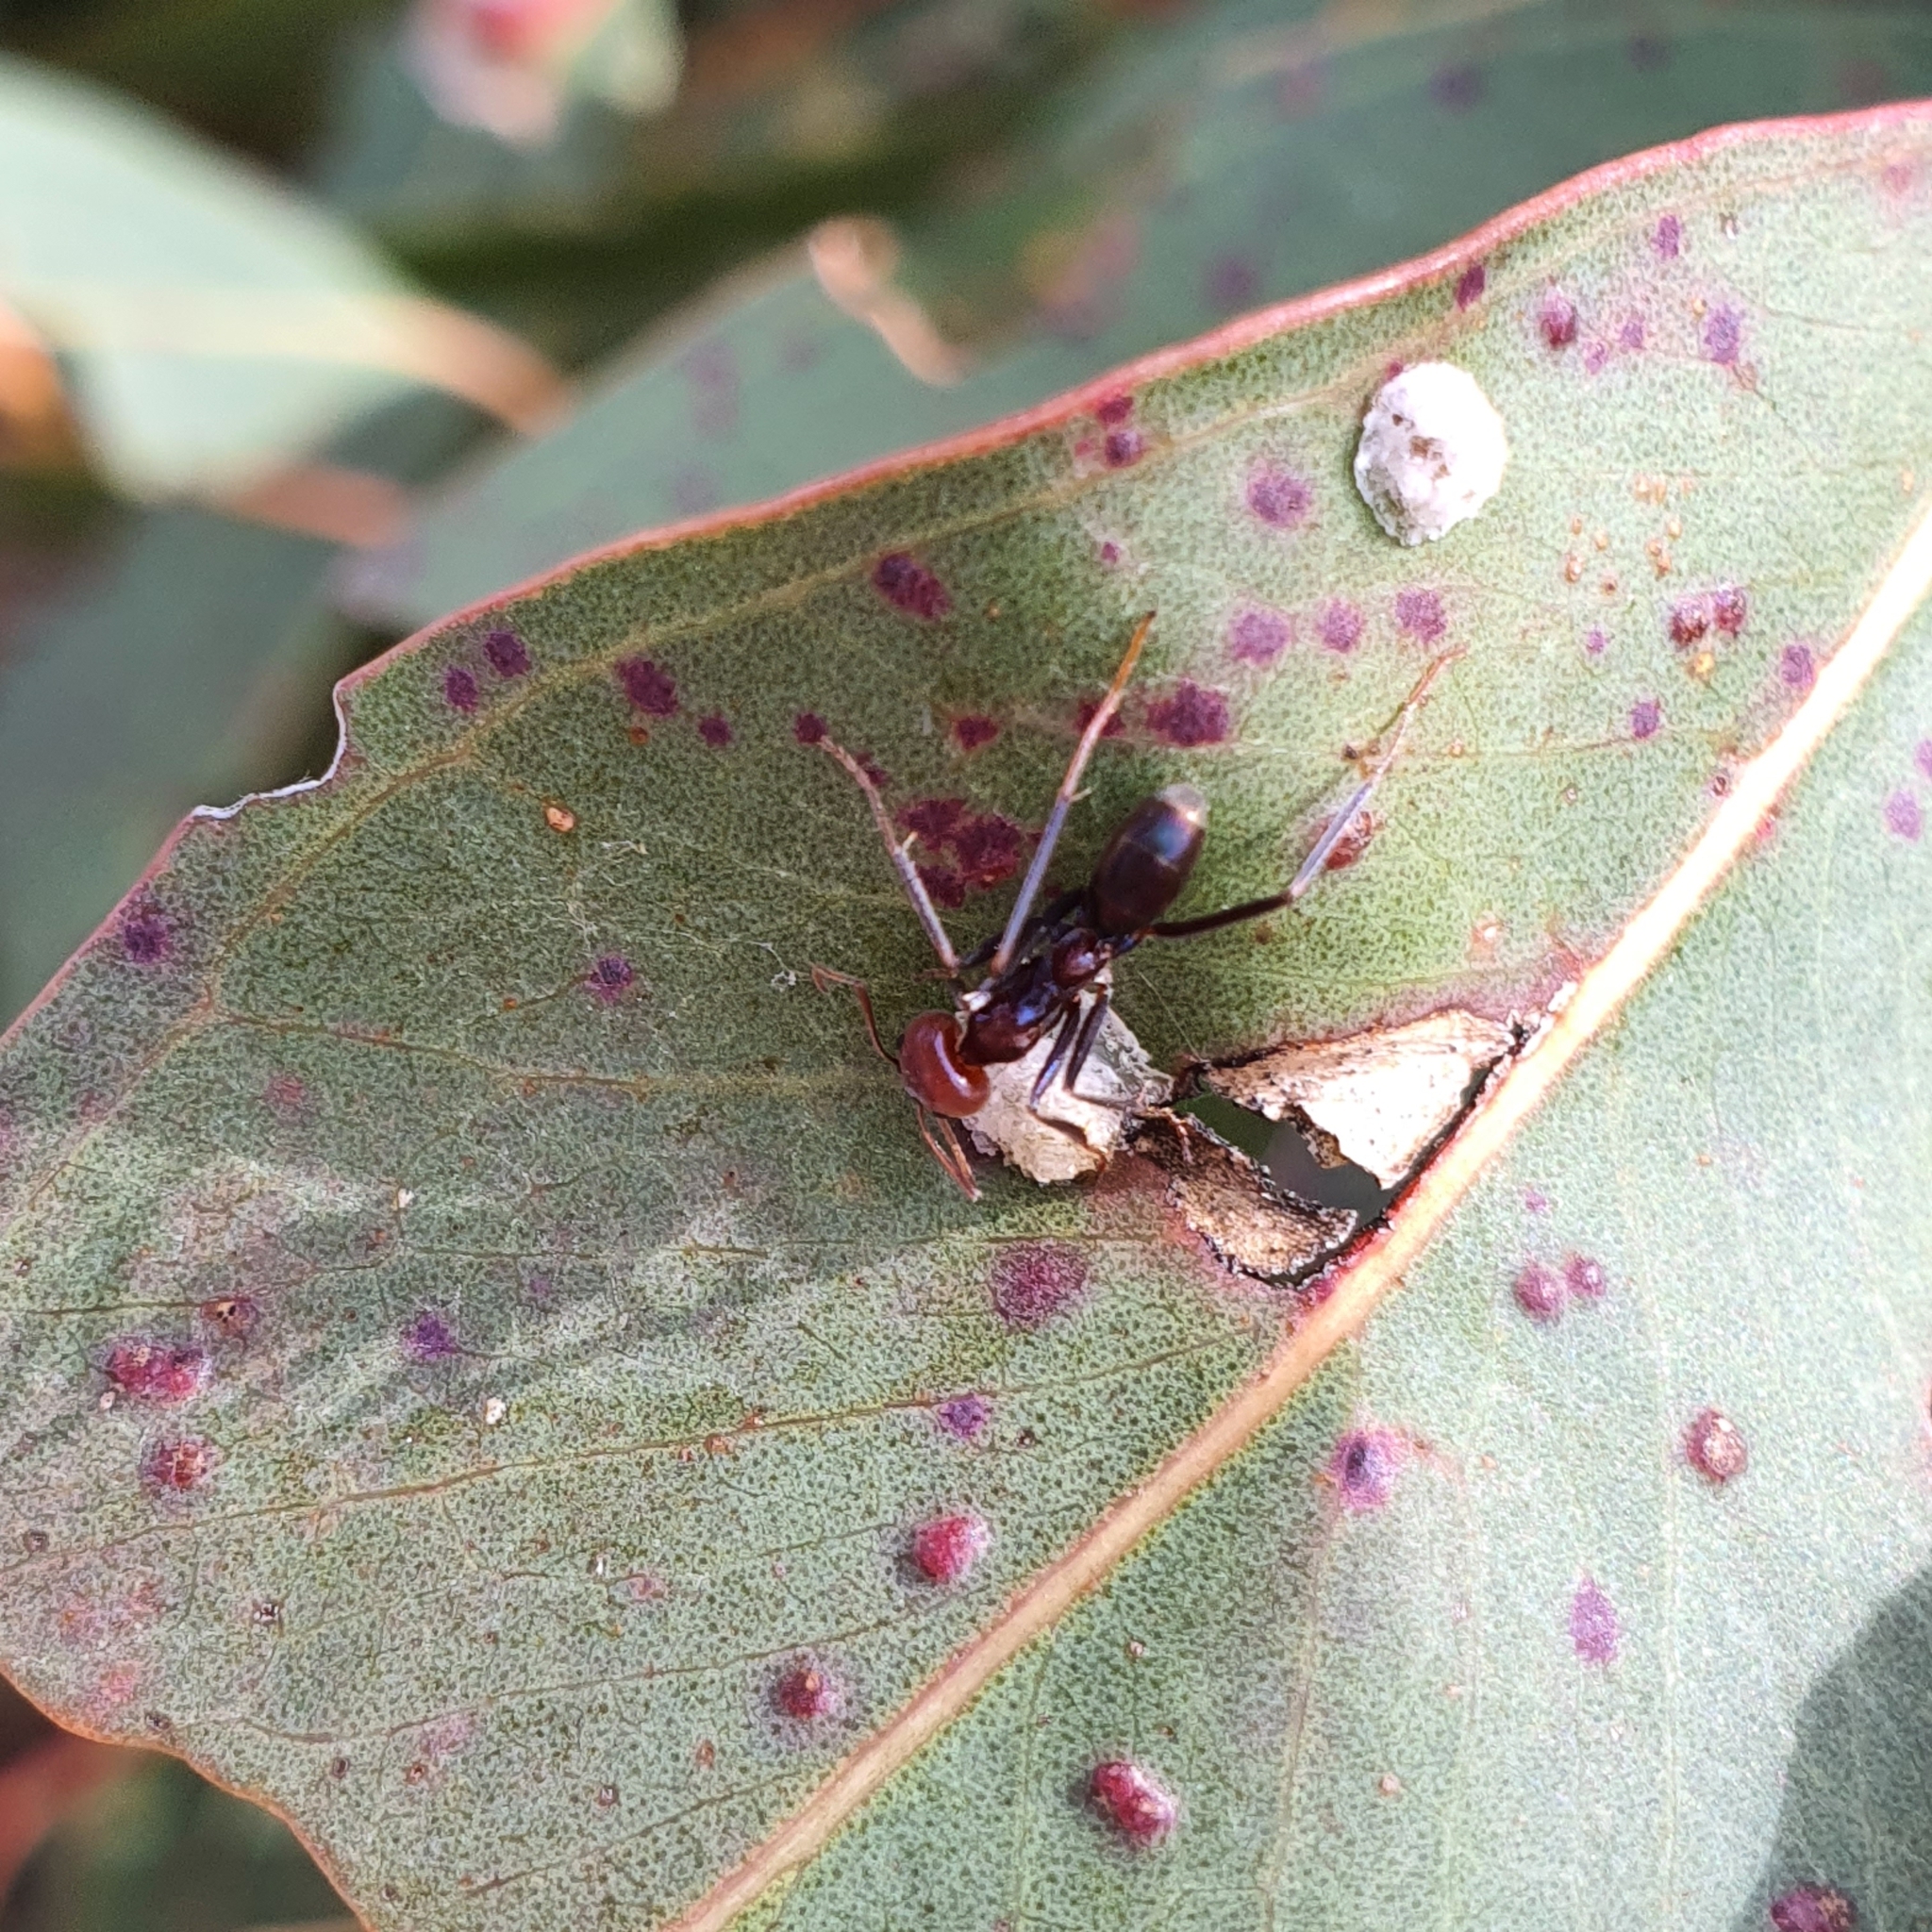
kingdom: Animalia
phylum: Arthropoda
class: Insecta
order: Hymenoptera
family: Formicidae
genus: Iridomyrmex
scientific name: Iridomyrmex purpureus
